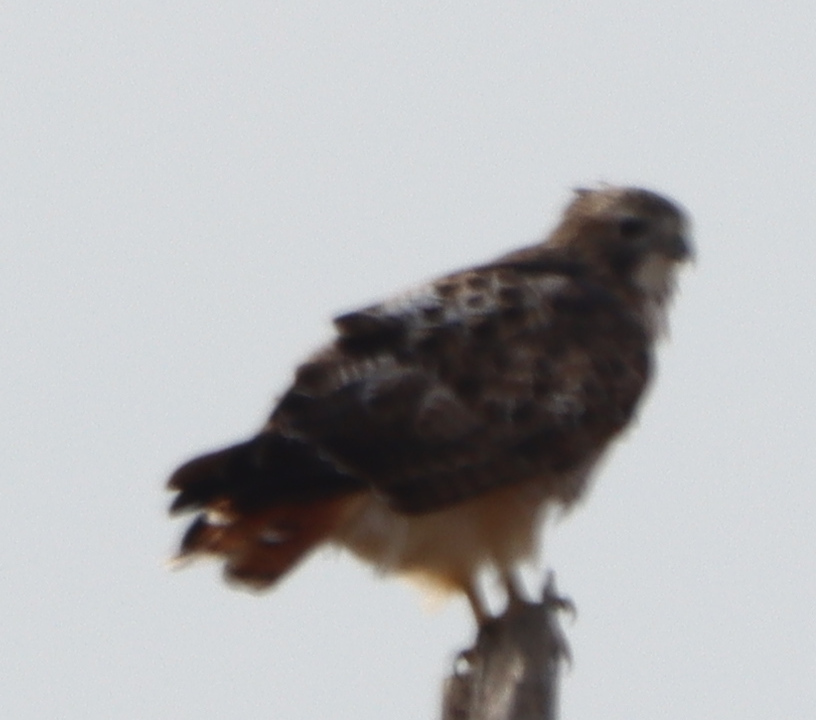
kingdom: Animalia
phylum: Chordata
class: Aves
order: Accipitriformes
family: Accipitridae
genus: Buteo
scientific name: Buteo jamaicensis
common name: Red-tailed hawk
